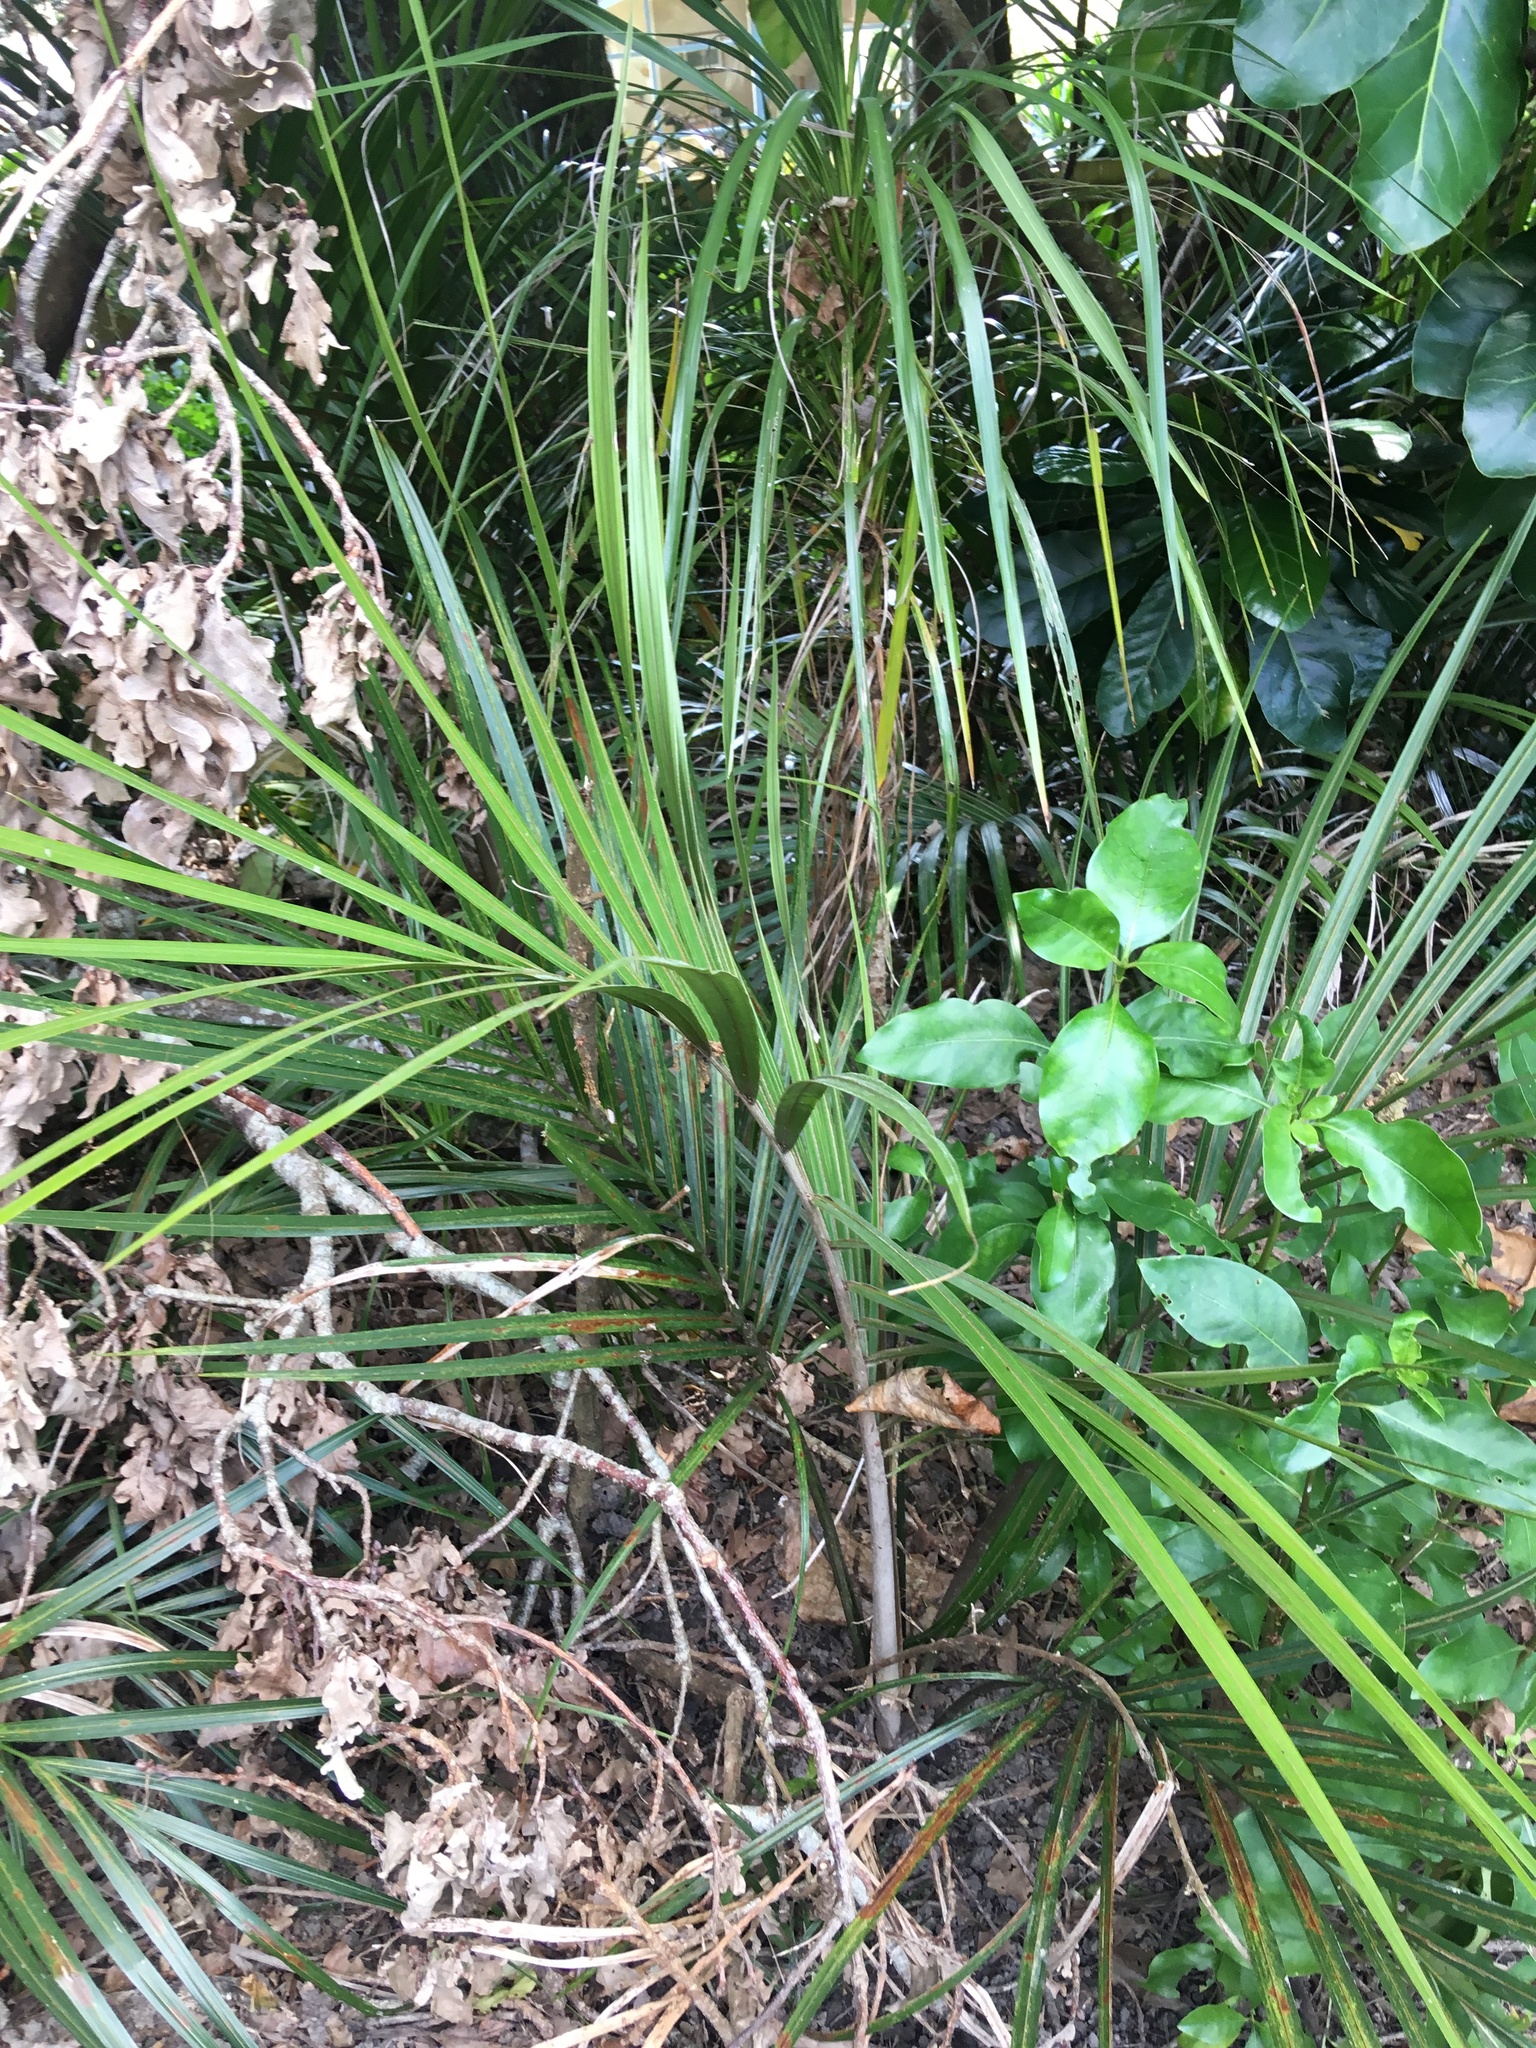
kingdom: Plantae
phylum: Tracheophyta
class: Liliopsida
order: Arecales
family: Arecaceae
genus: Rhopalostylis
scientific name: Rhopalostylis sapida
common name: Feather-duster palm
